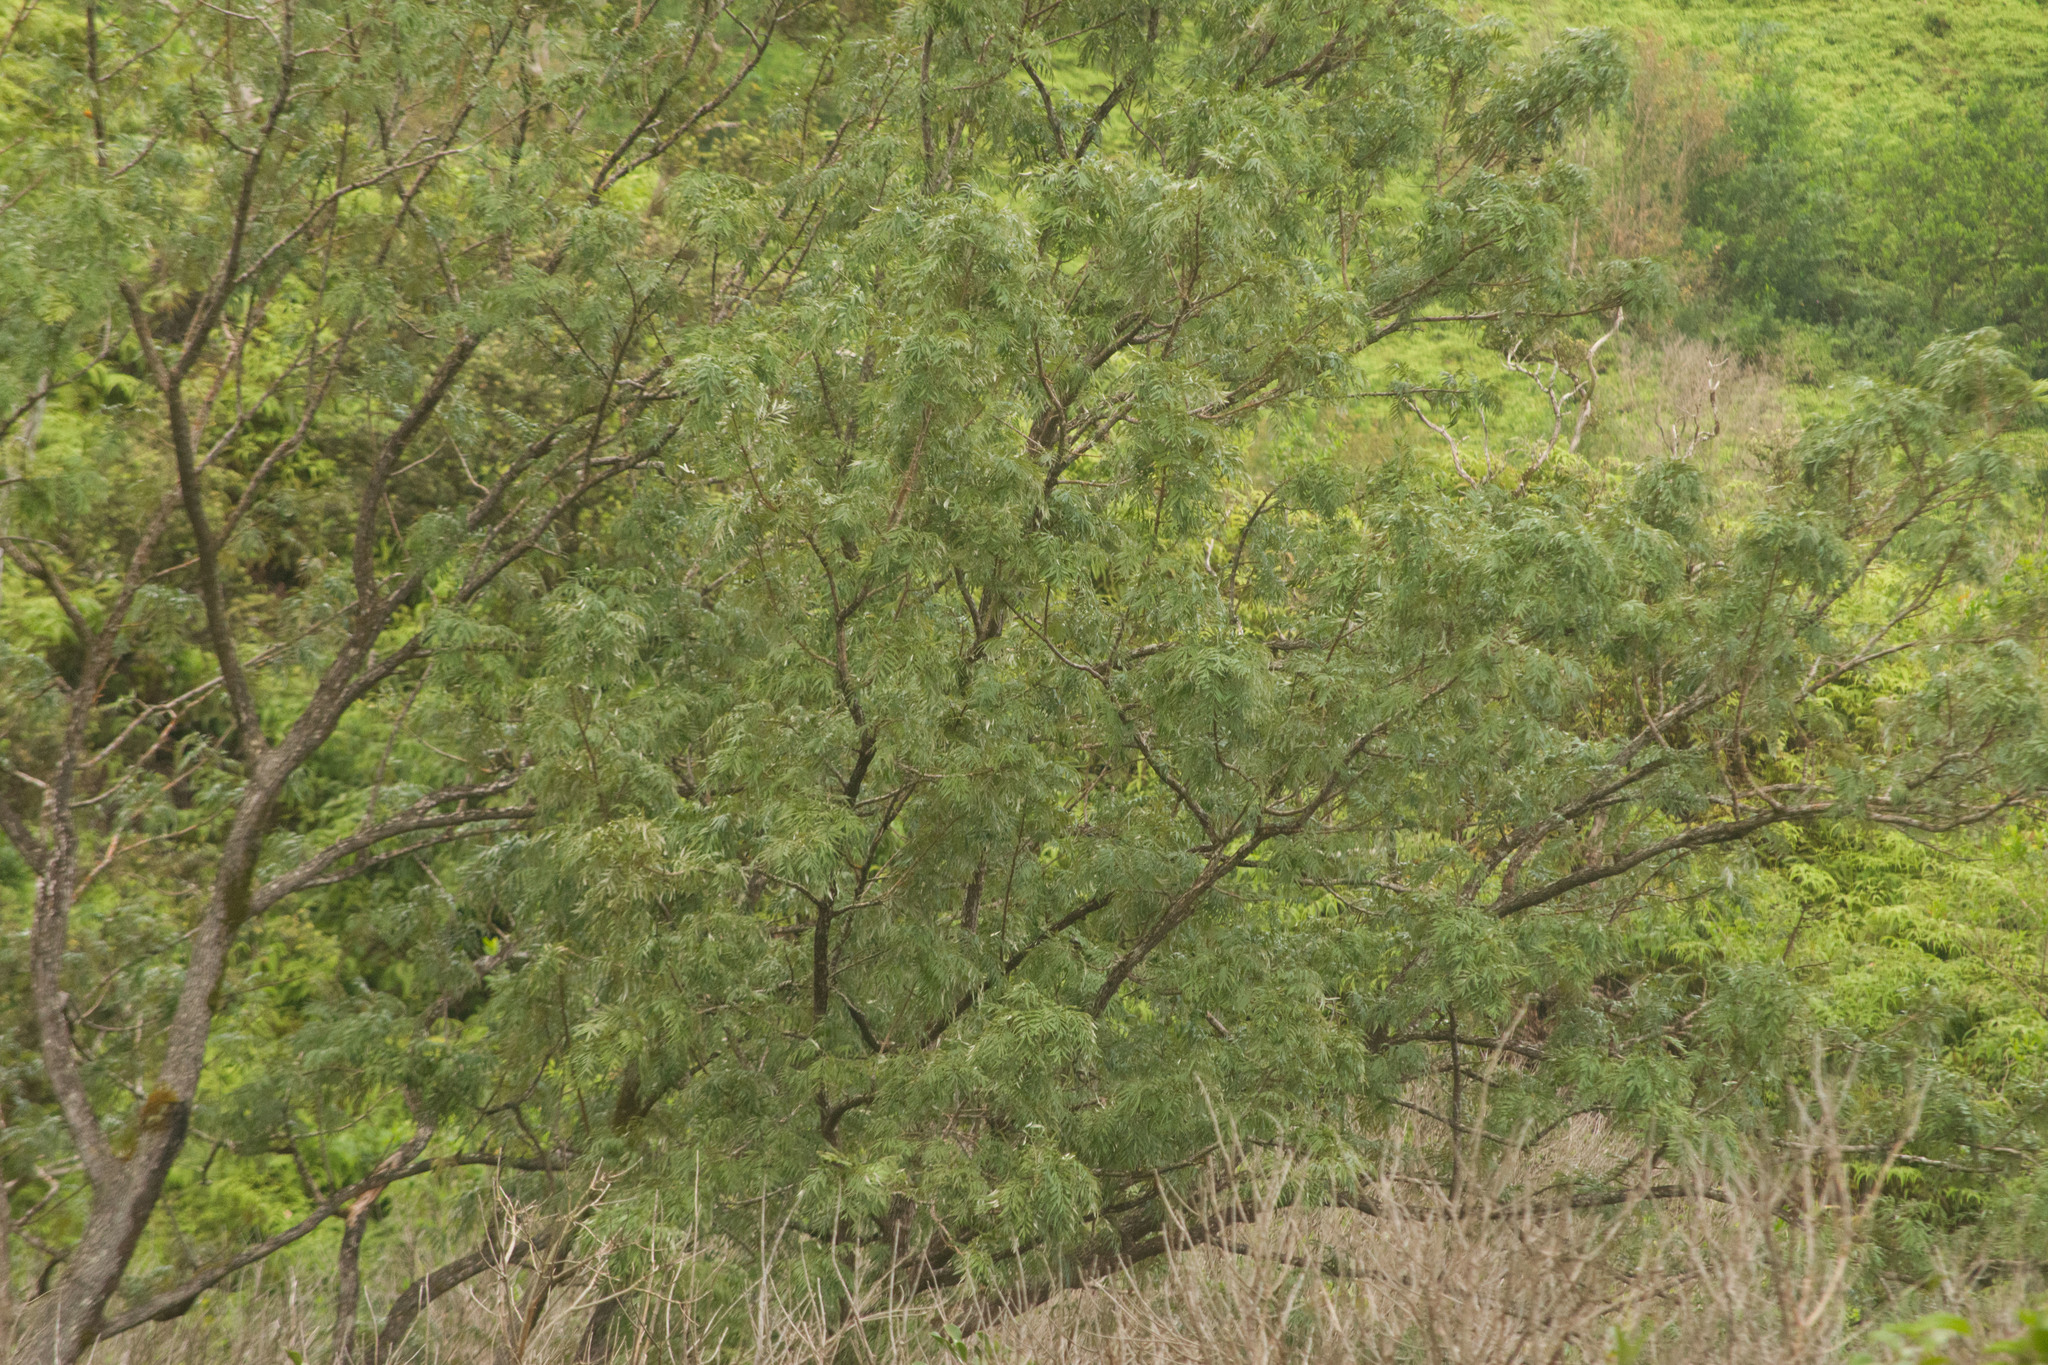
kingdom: Plantae
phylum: Tracheophyta
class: Magnoliopsida
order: Proteales
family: Proteaceae
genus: Grevillea
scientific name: Grevillea robusta
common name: Silkoak
